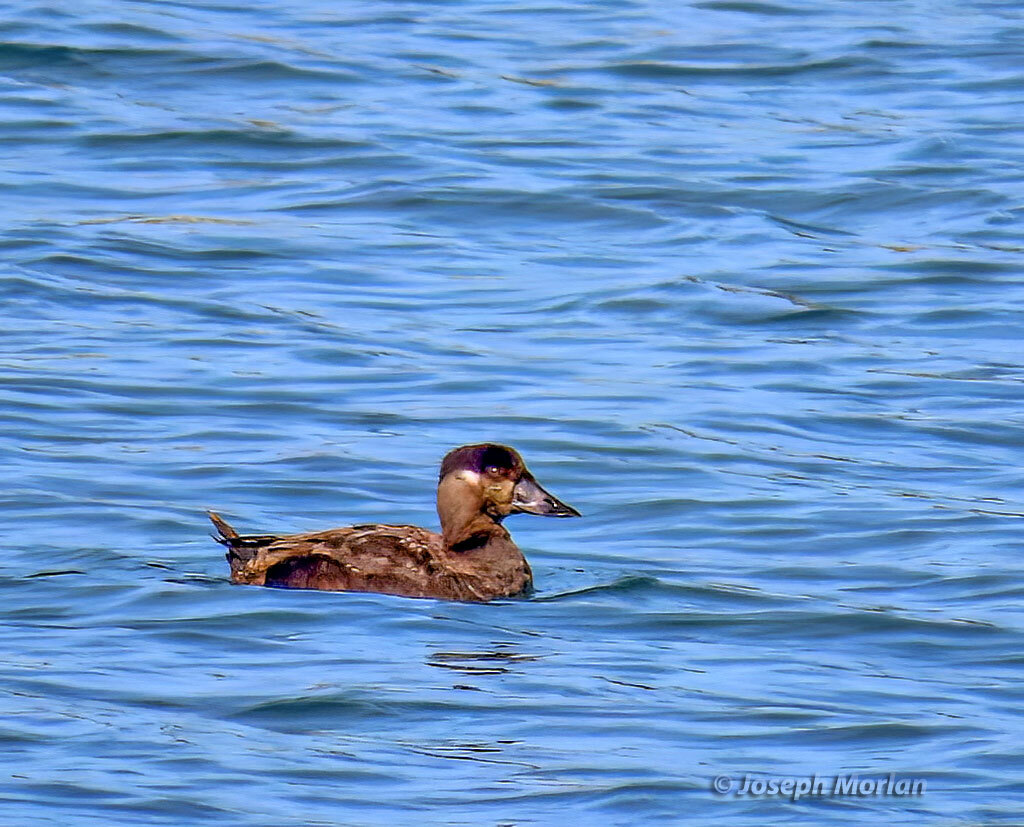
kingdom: Animalia
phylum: Chordata
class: Aves
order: Anseriformes
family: Anatidae
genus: Melanitta
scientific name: Melanitta perspicillata
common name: Surf scoter
